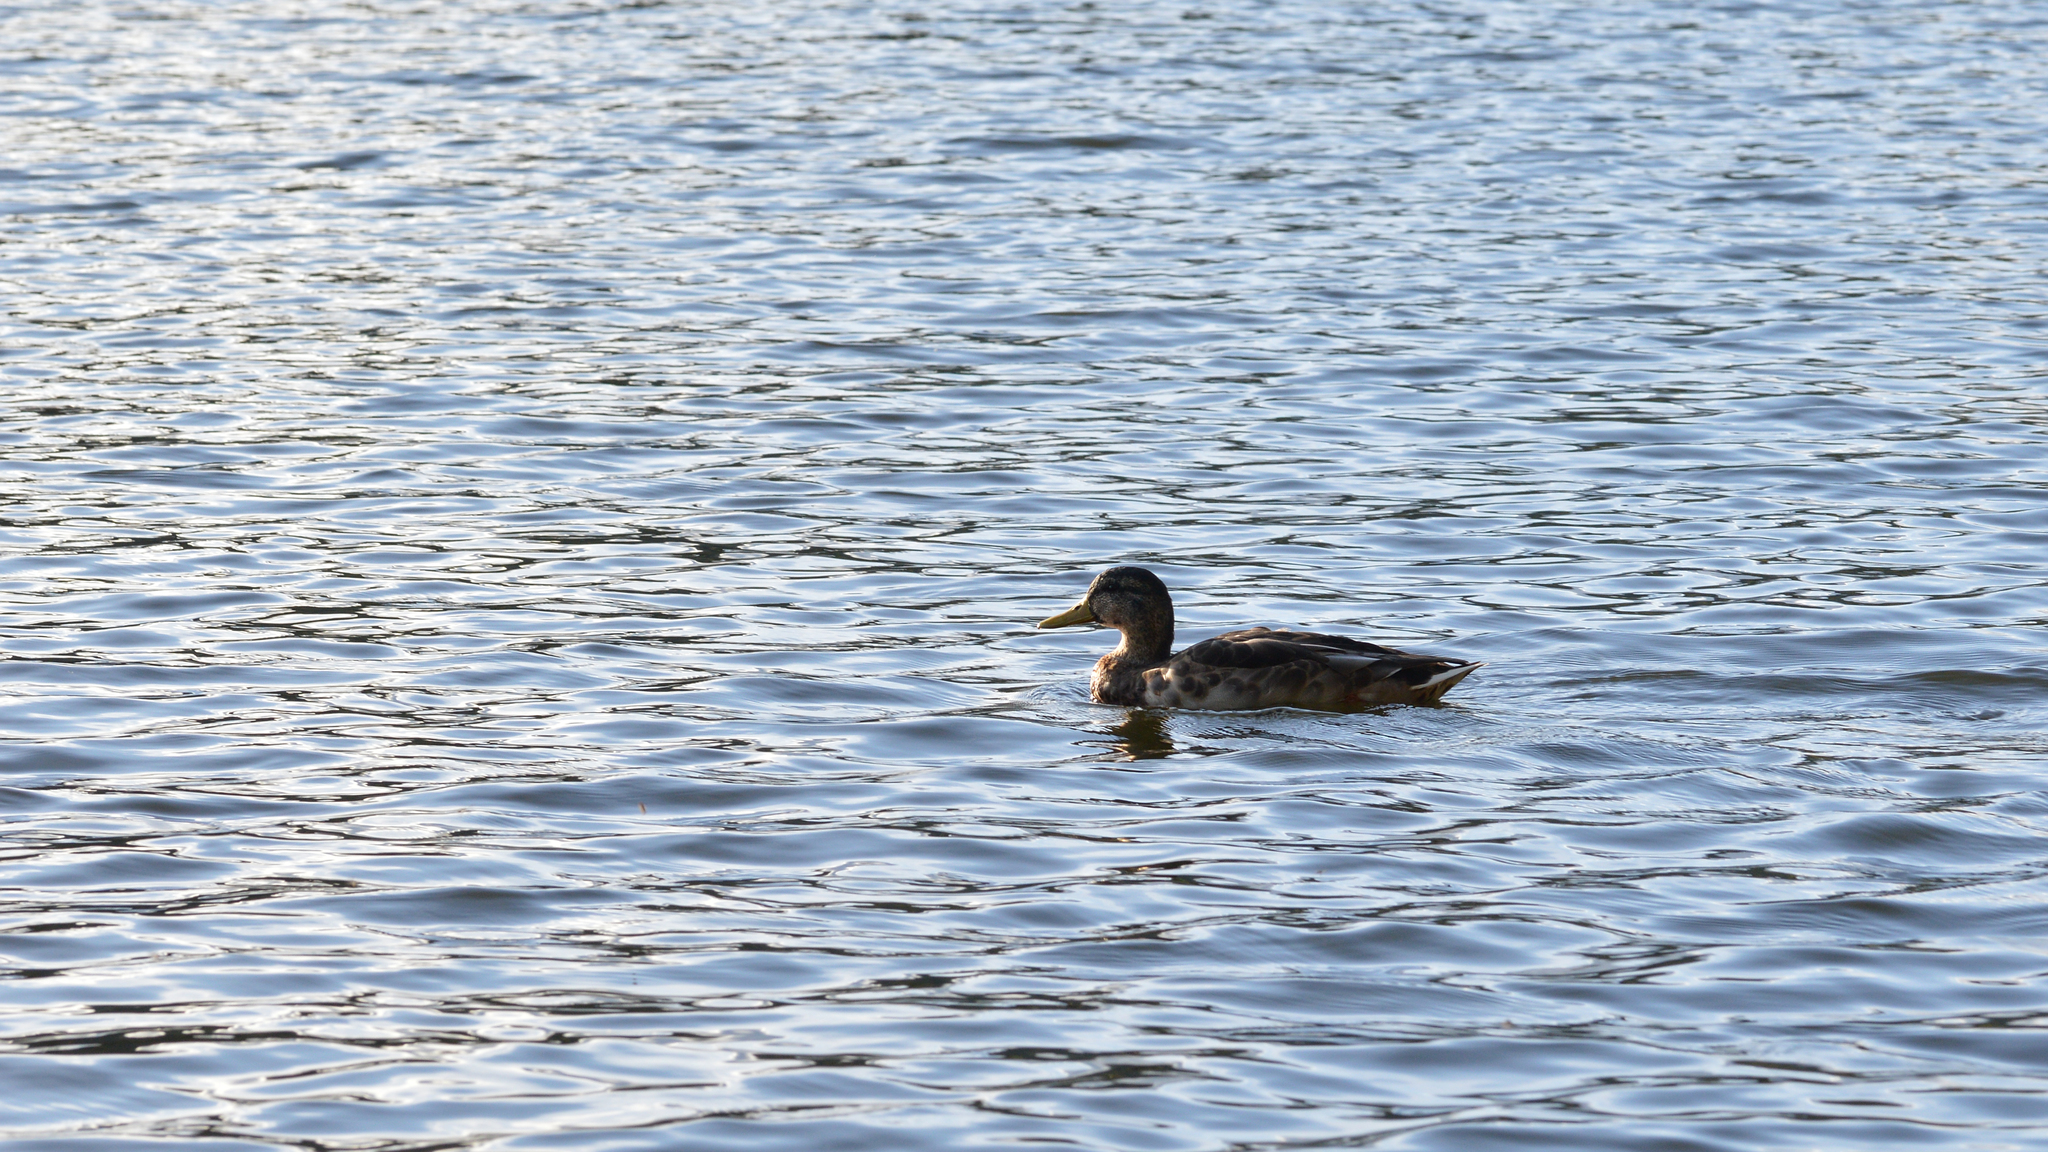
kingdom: Animalia
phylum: Chordata
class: Aves
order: Anseriformes
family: Anatidae
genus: Anas
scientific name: Anas platyrhynchos
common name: Mallard
